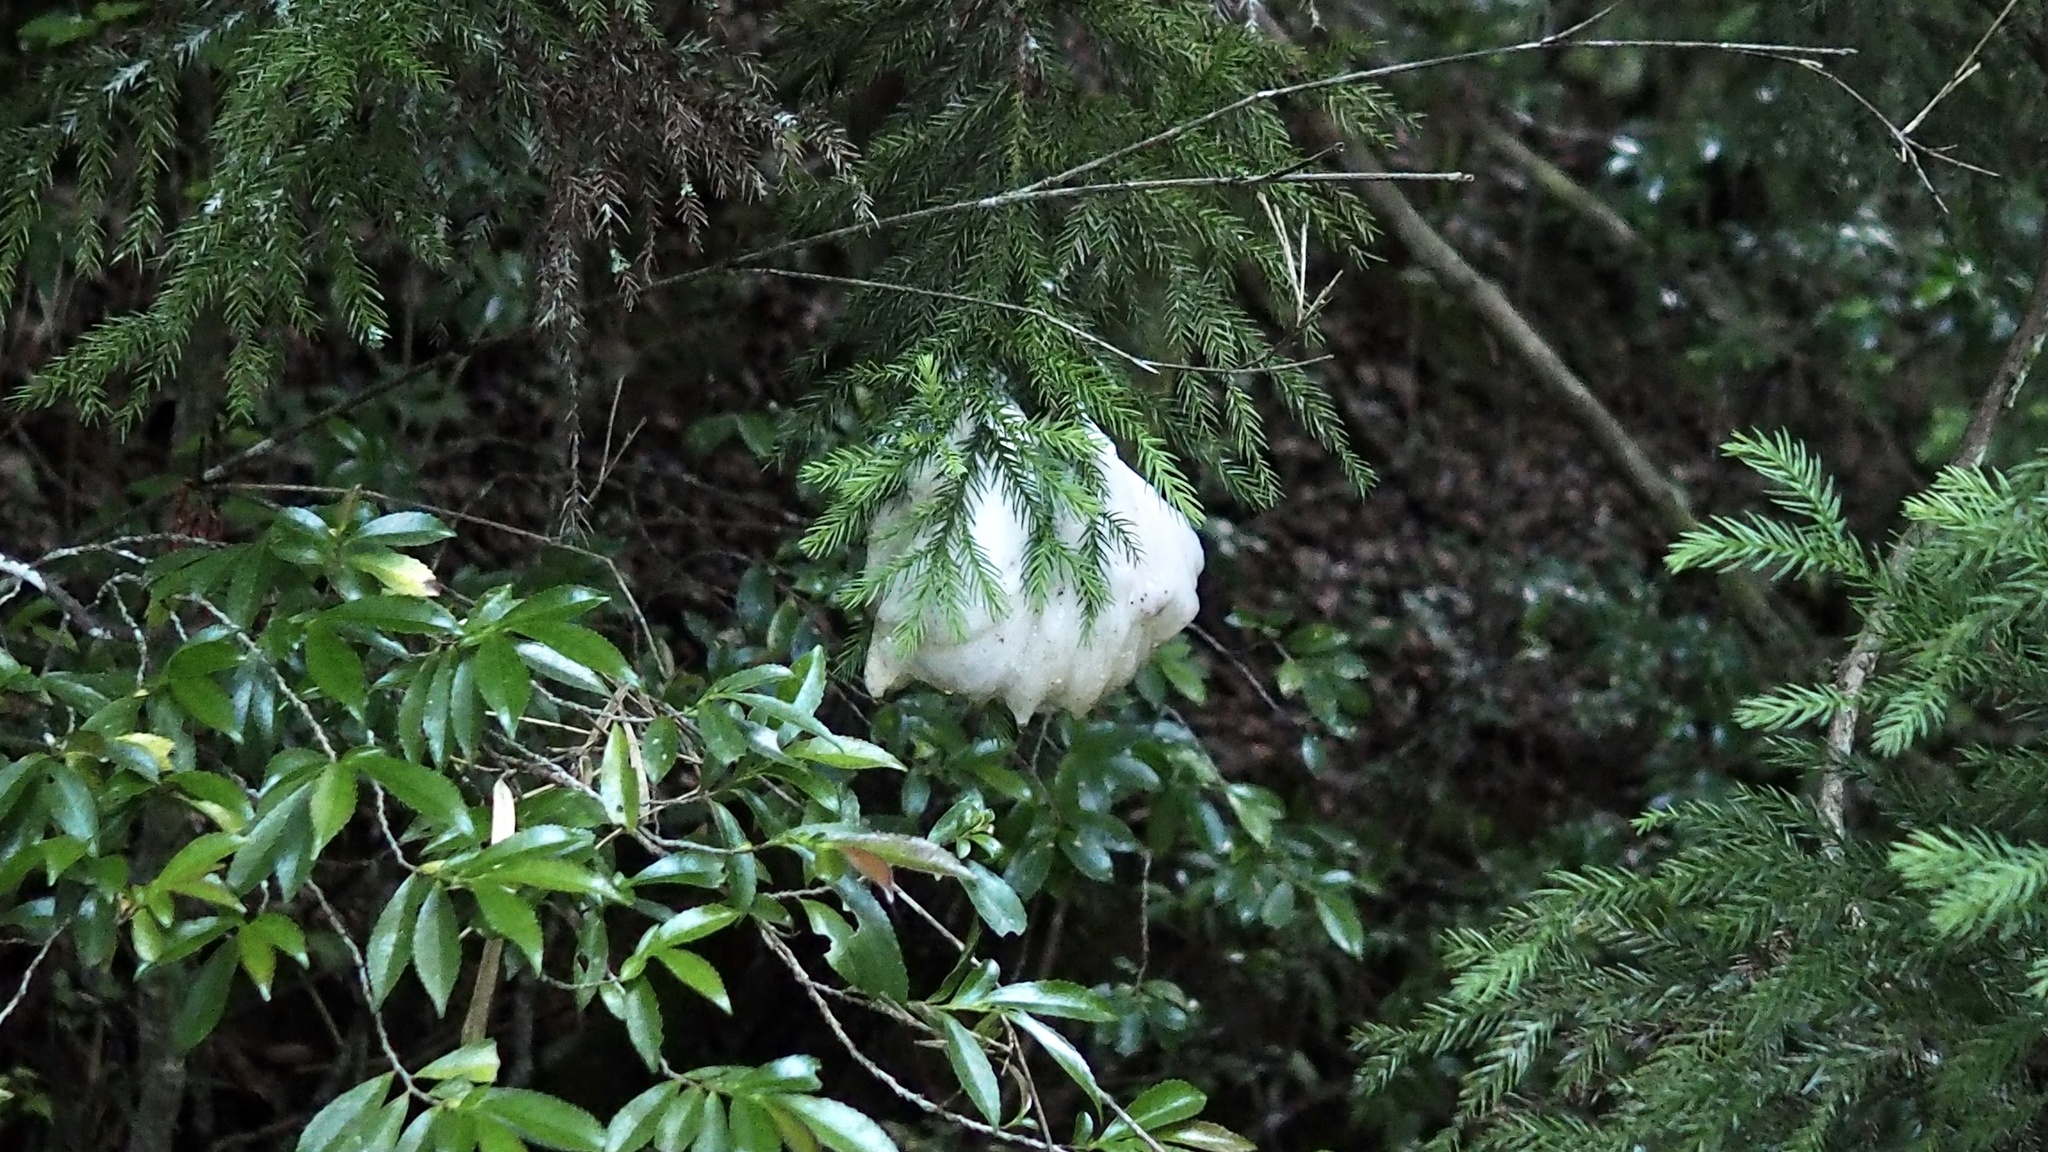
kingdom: Animalia
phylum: Chordata
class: Amphibia
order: Anura
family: Rhacophoridae
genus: Zhangixalus
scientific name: Zhangixalus arboreus
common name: Forest green tree frog
